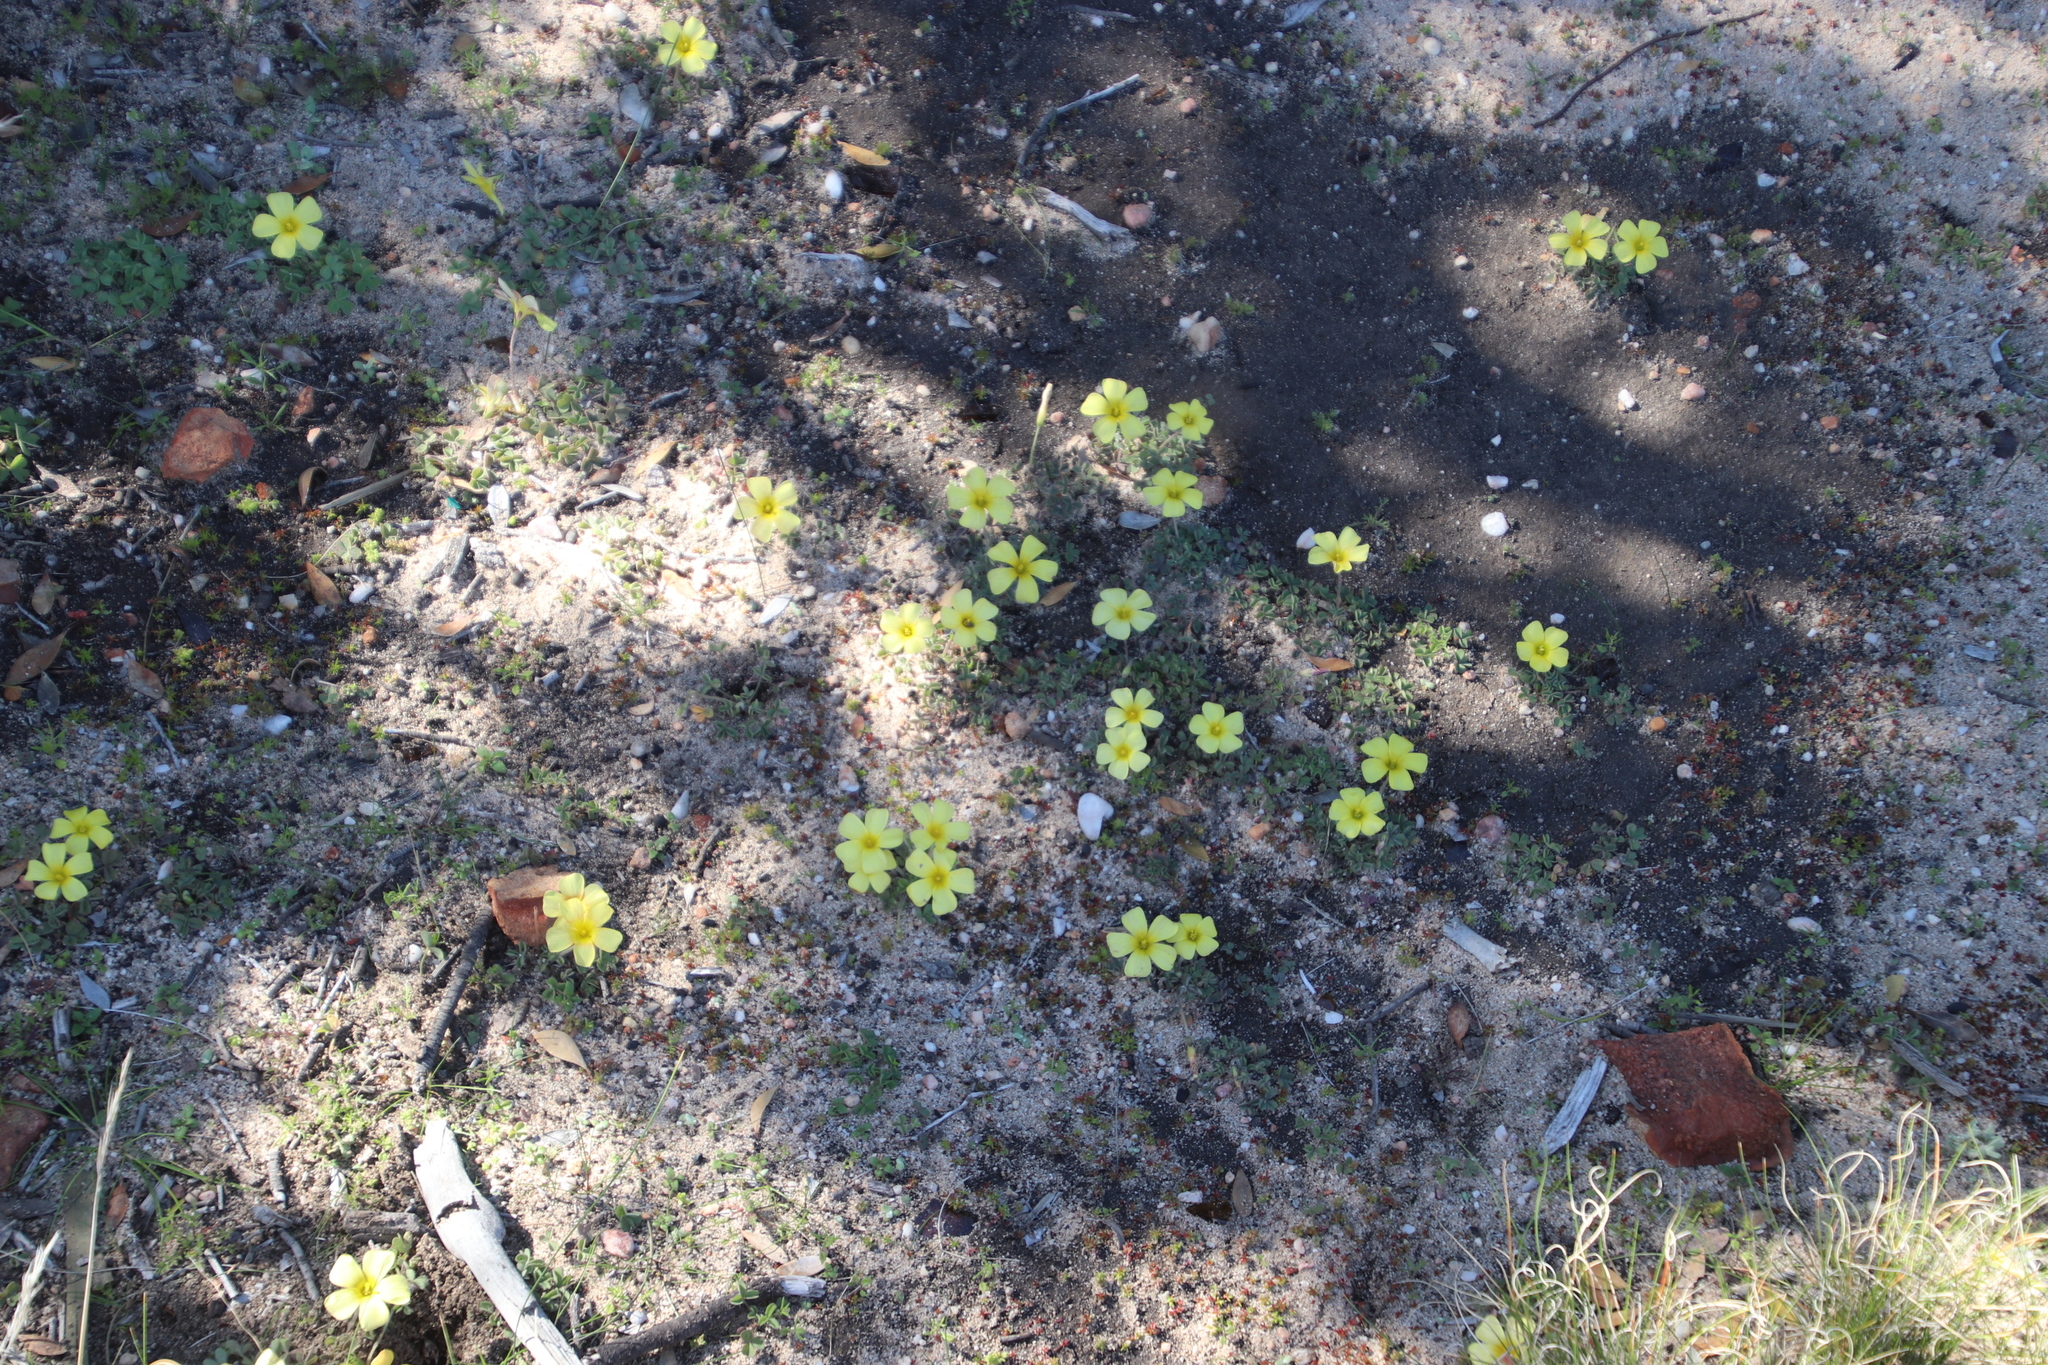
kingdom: Plantae
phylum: Tracheophyta
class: Magnoliopsida
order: Oxalidales
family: Oxalidaceae
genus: Oxalis
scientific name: Oxalis obtusa
